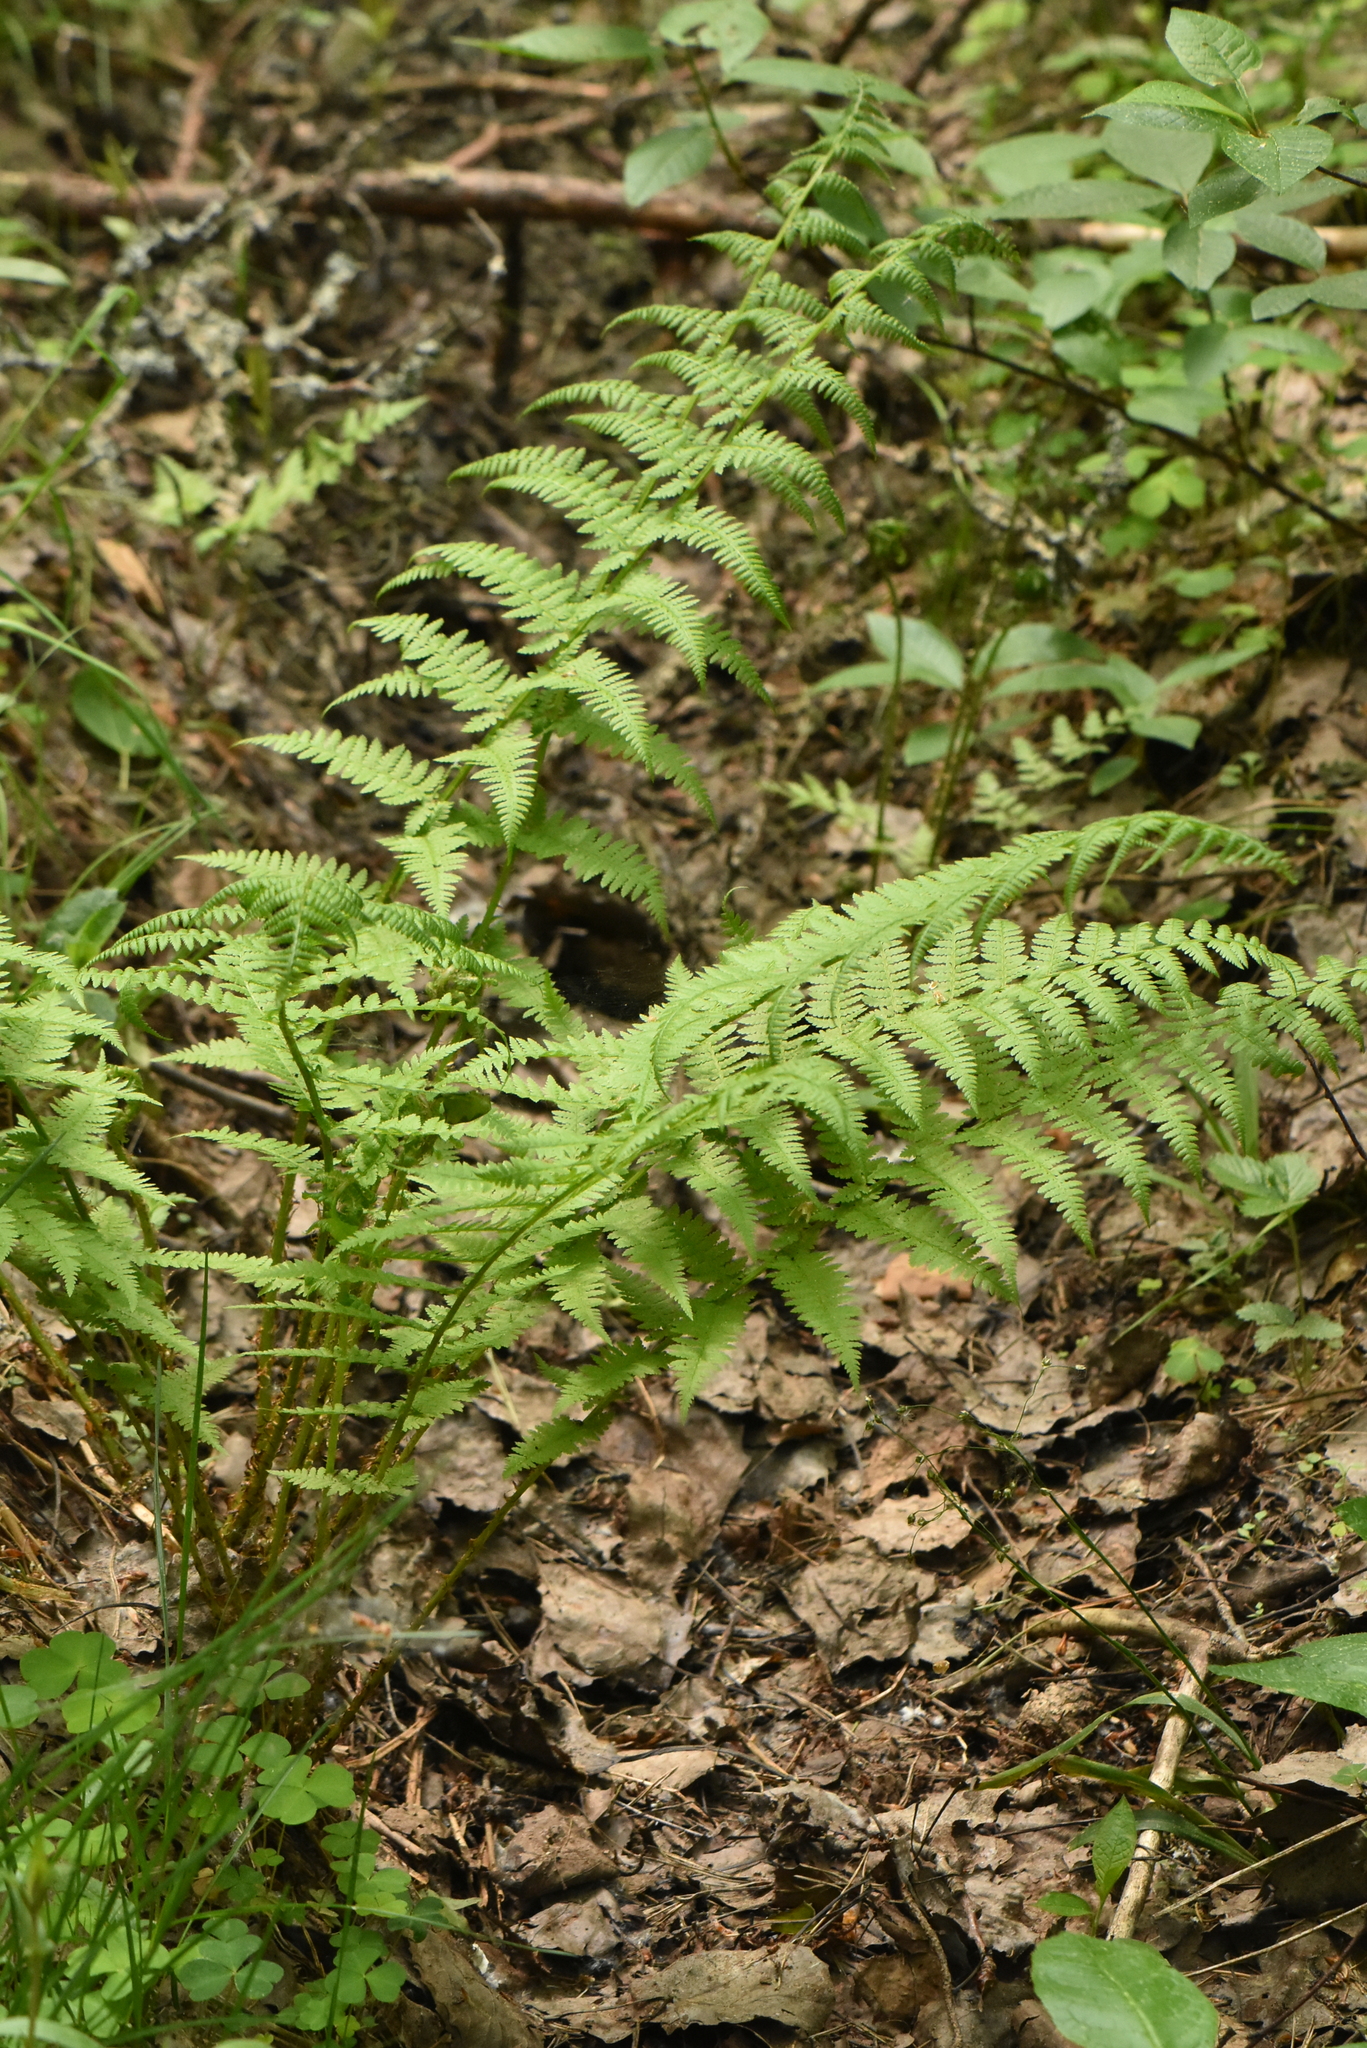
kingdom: Plantae
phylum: Tracheophyta
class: Polypodiopsida
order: Polypodiales
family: Athyriaceae
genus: Athyrium
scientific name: Athyrium filix-femina
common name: Lady fern
